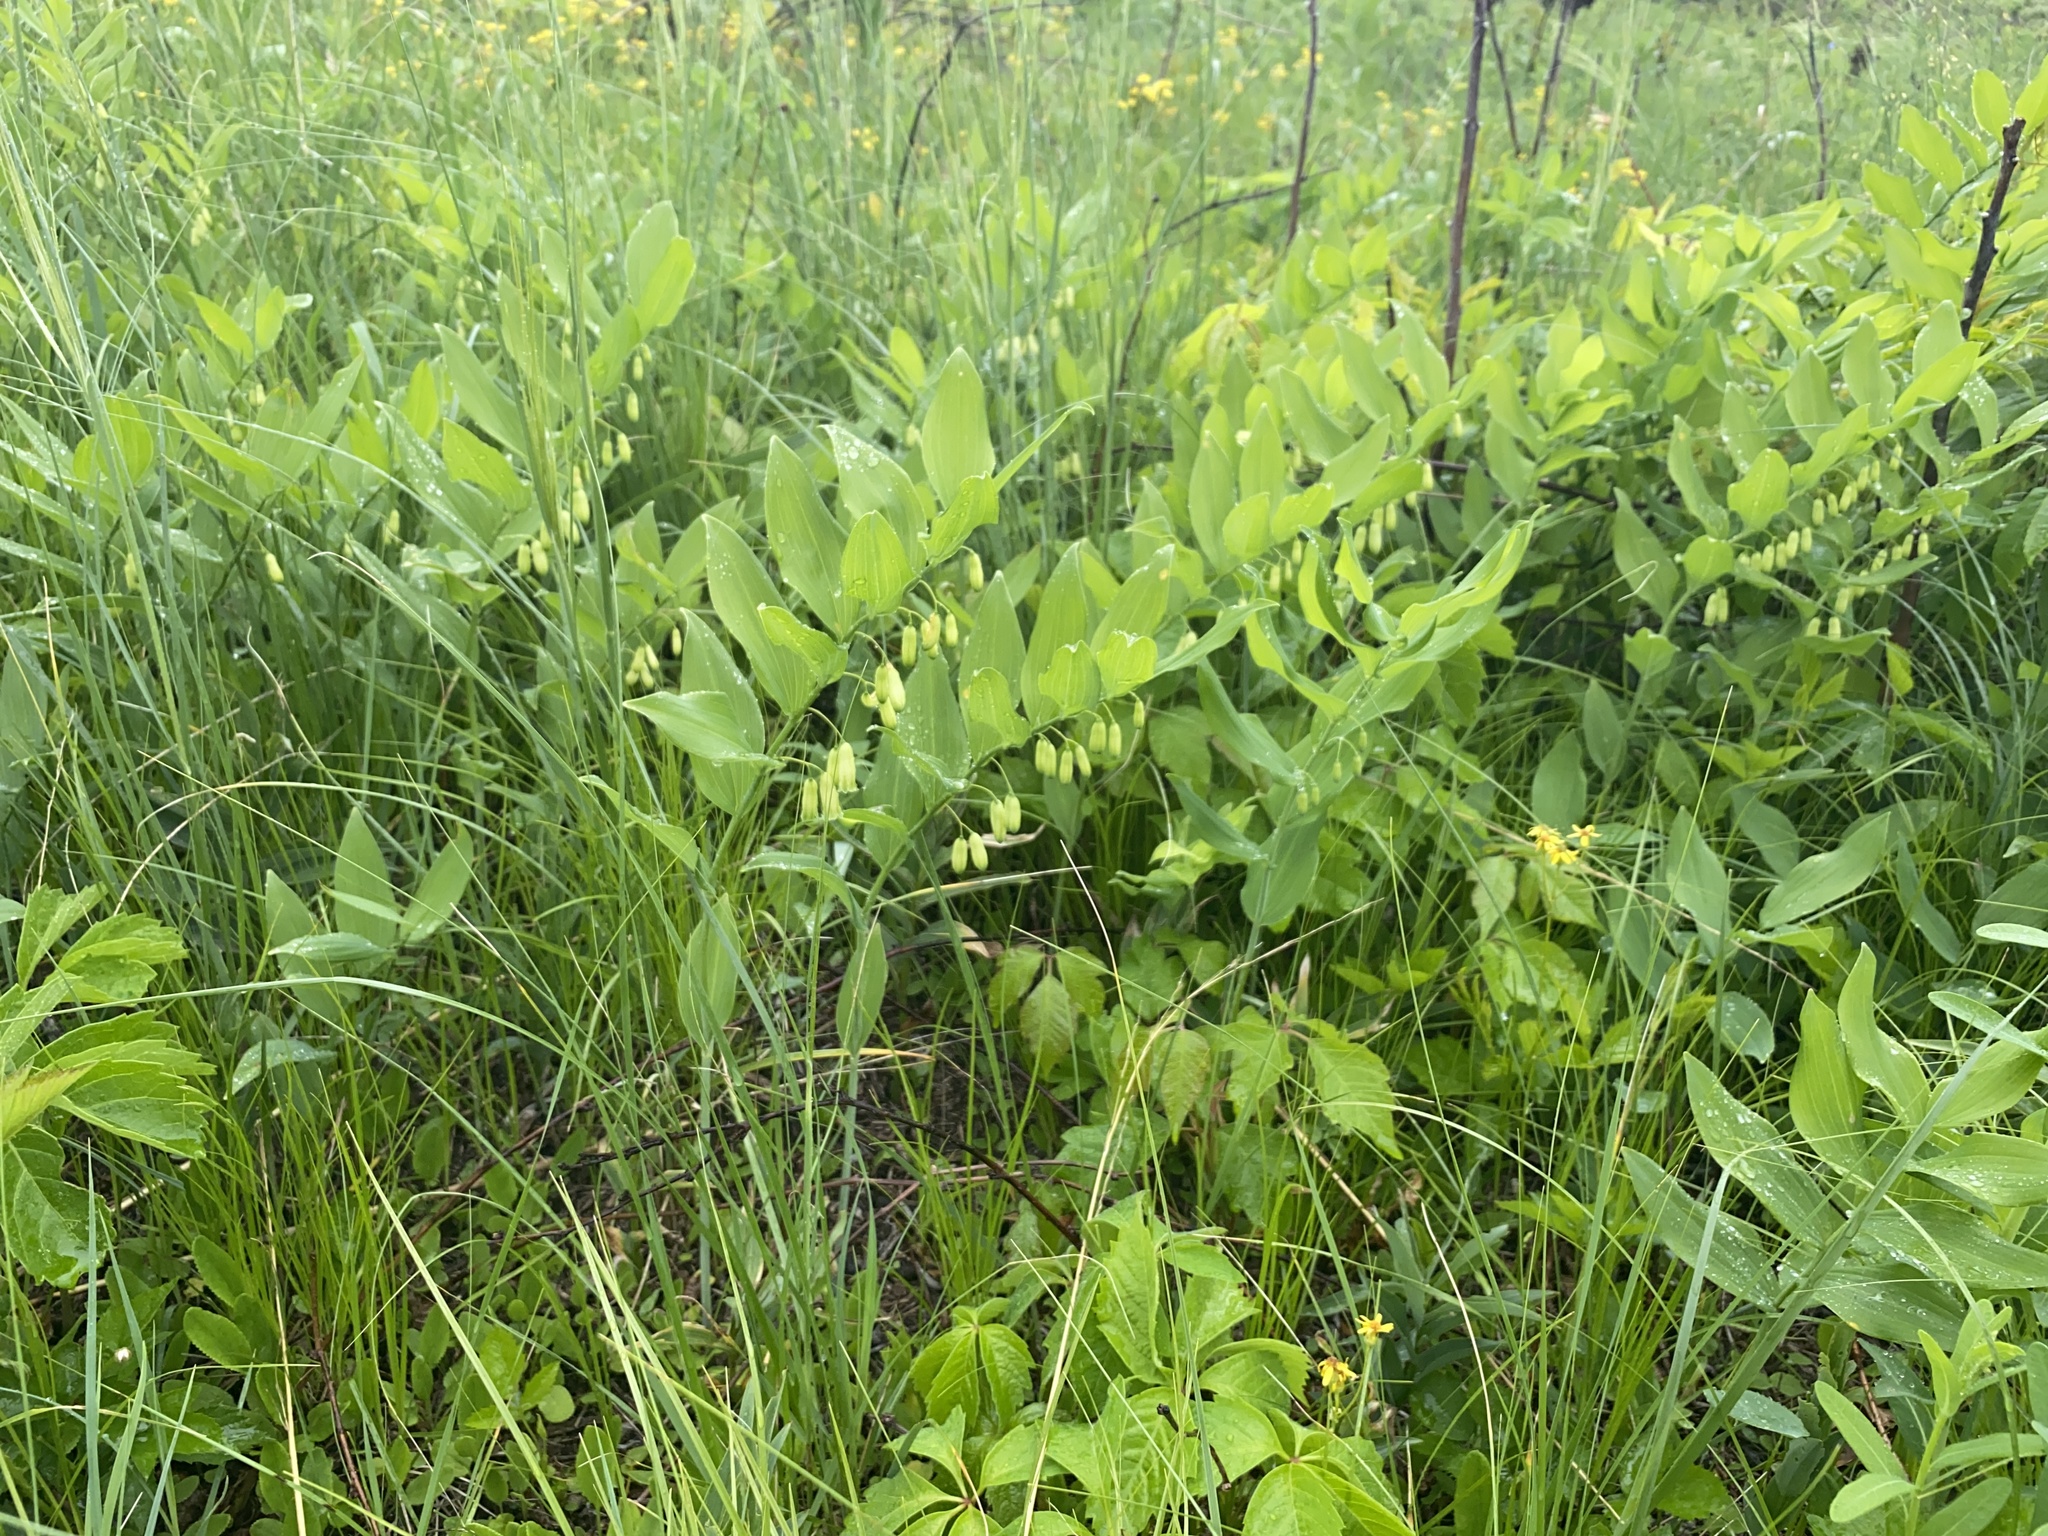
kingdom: Plantae
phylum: Tracheophyta
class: Liliopsida
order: Asparagales
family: Asparagaceae
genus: Polygonatum
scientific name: Polygonatum biflorum
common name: American solomon's-seal
